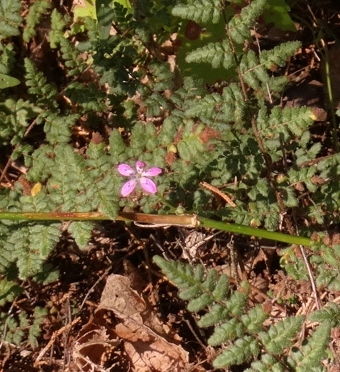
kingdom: Plantae
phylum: Tracheophyta
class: Magnoliopsida
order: Caryophyllales
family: Caryophyllaceae
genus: Dianthus
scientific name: Dianthus armeria
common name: Deptford pink
